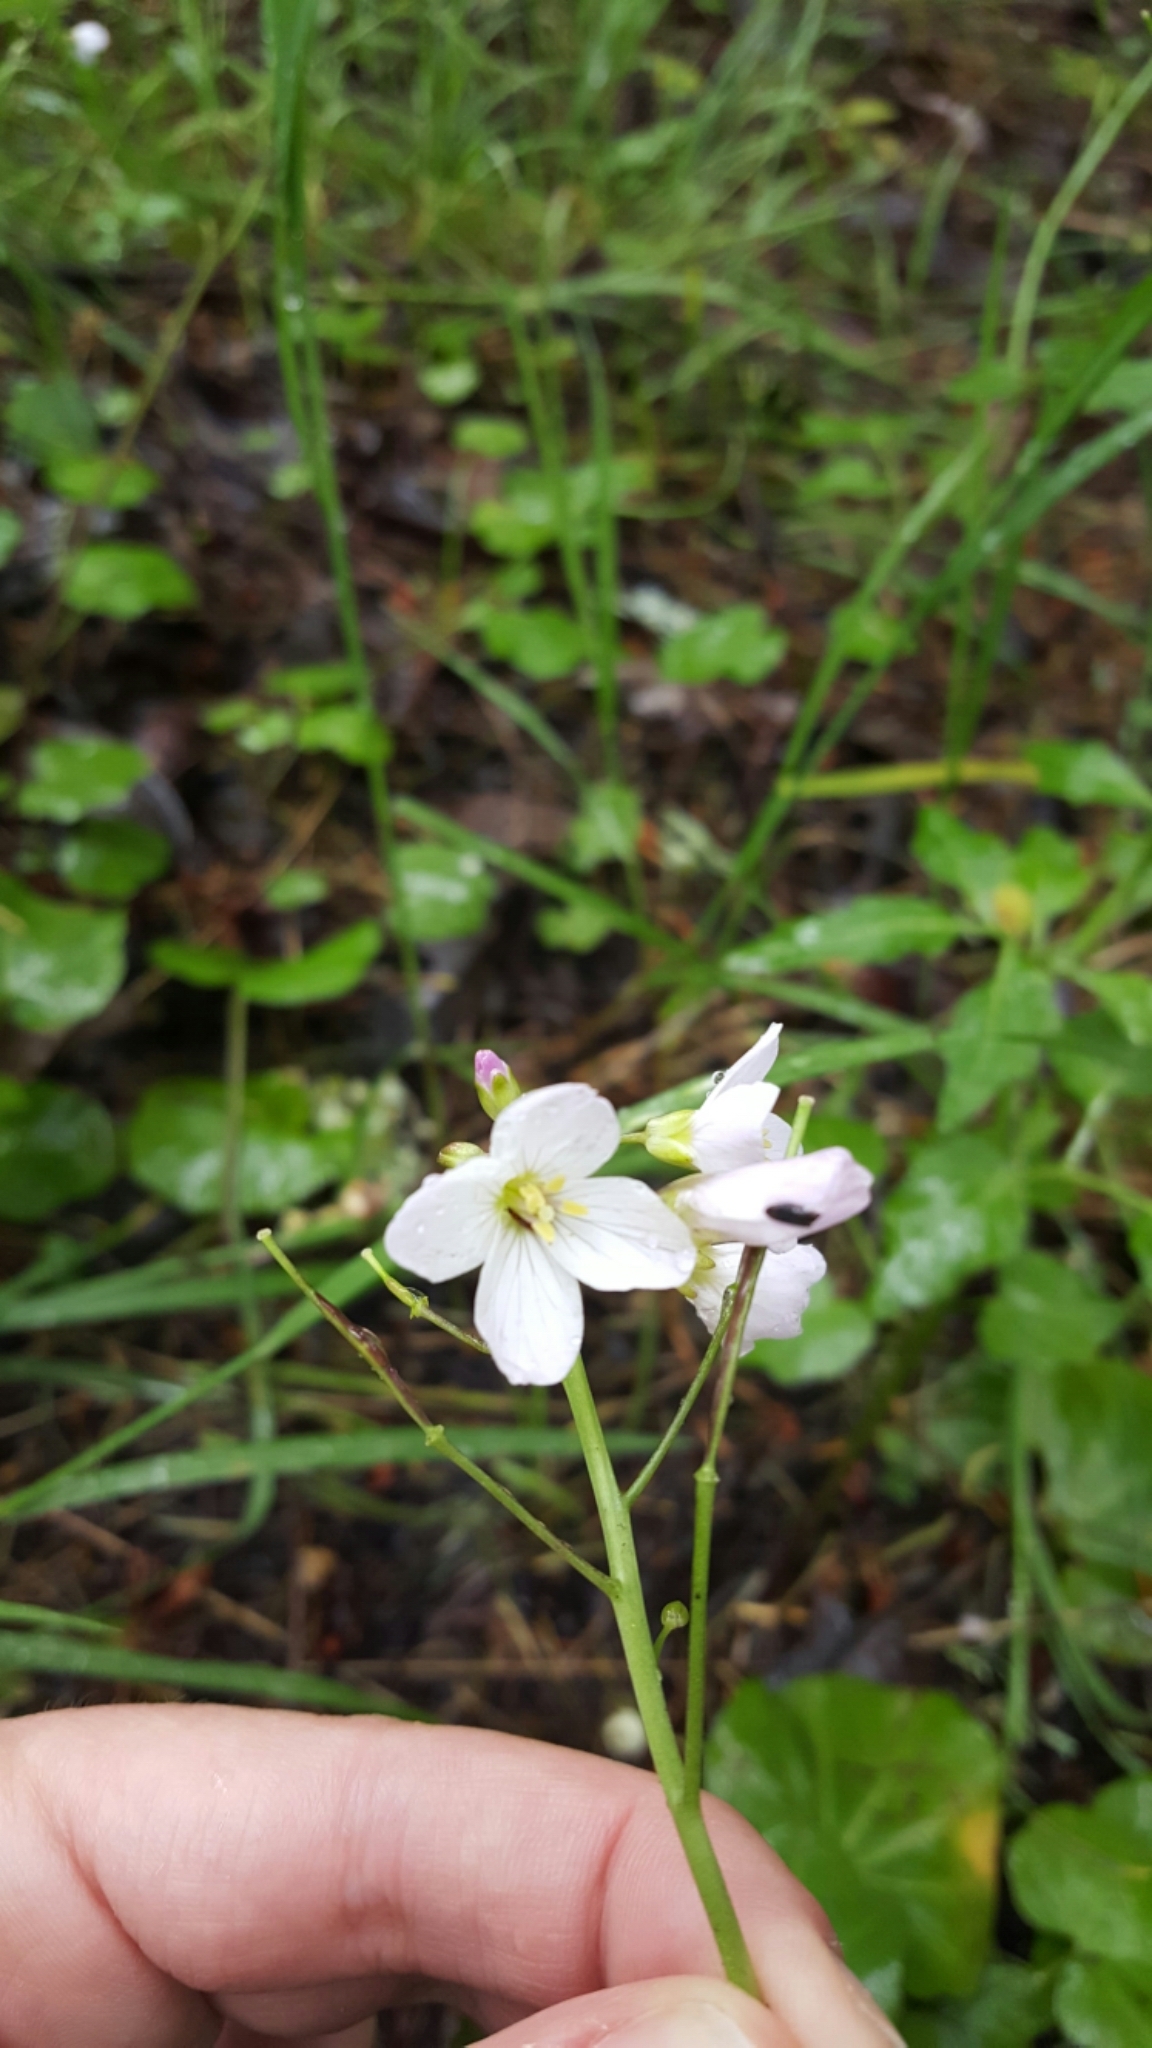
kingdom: Plantae
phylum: Tracheophyta
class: Magnoliopsida
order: Brassicales
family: Brassicaceae
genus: Cardamine
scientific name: Cardamine californica
